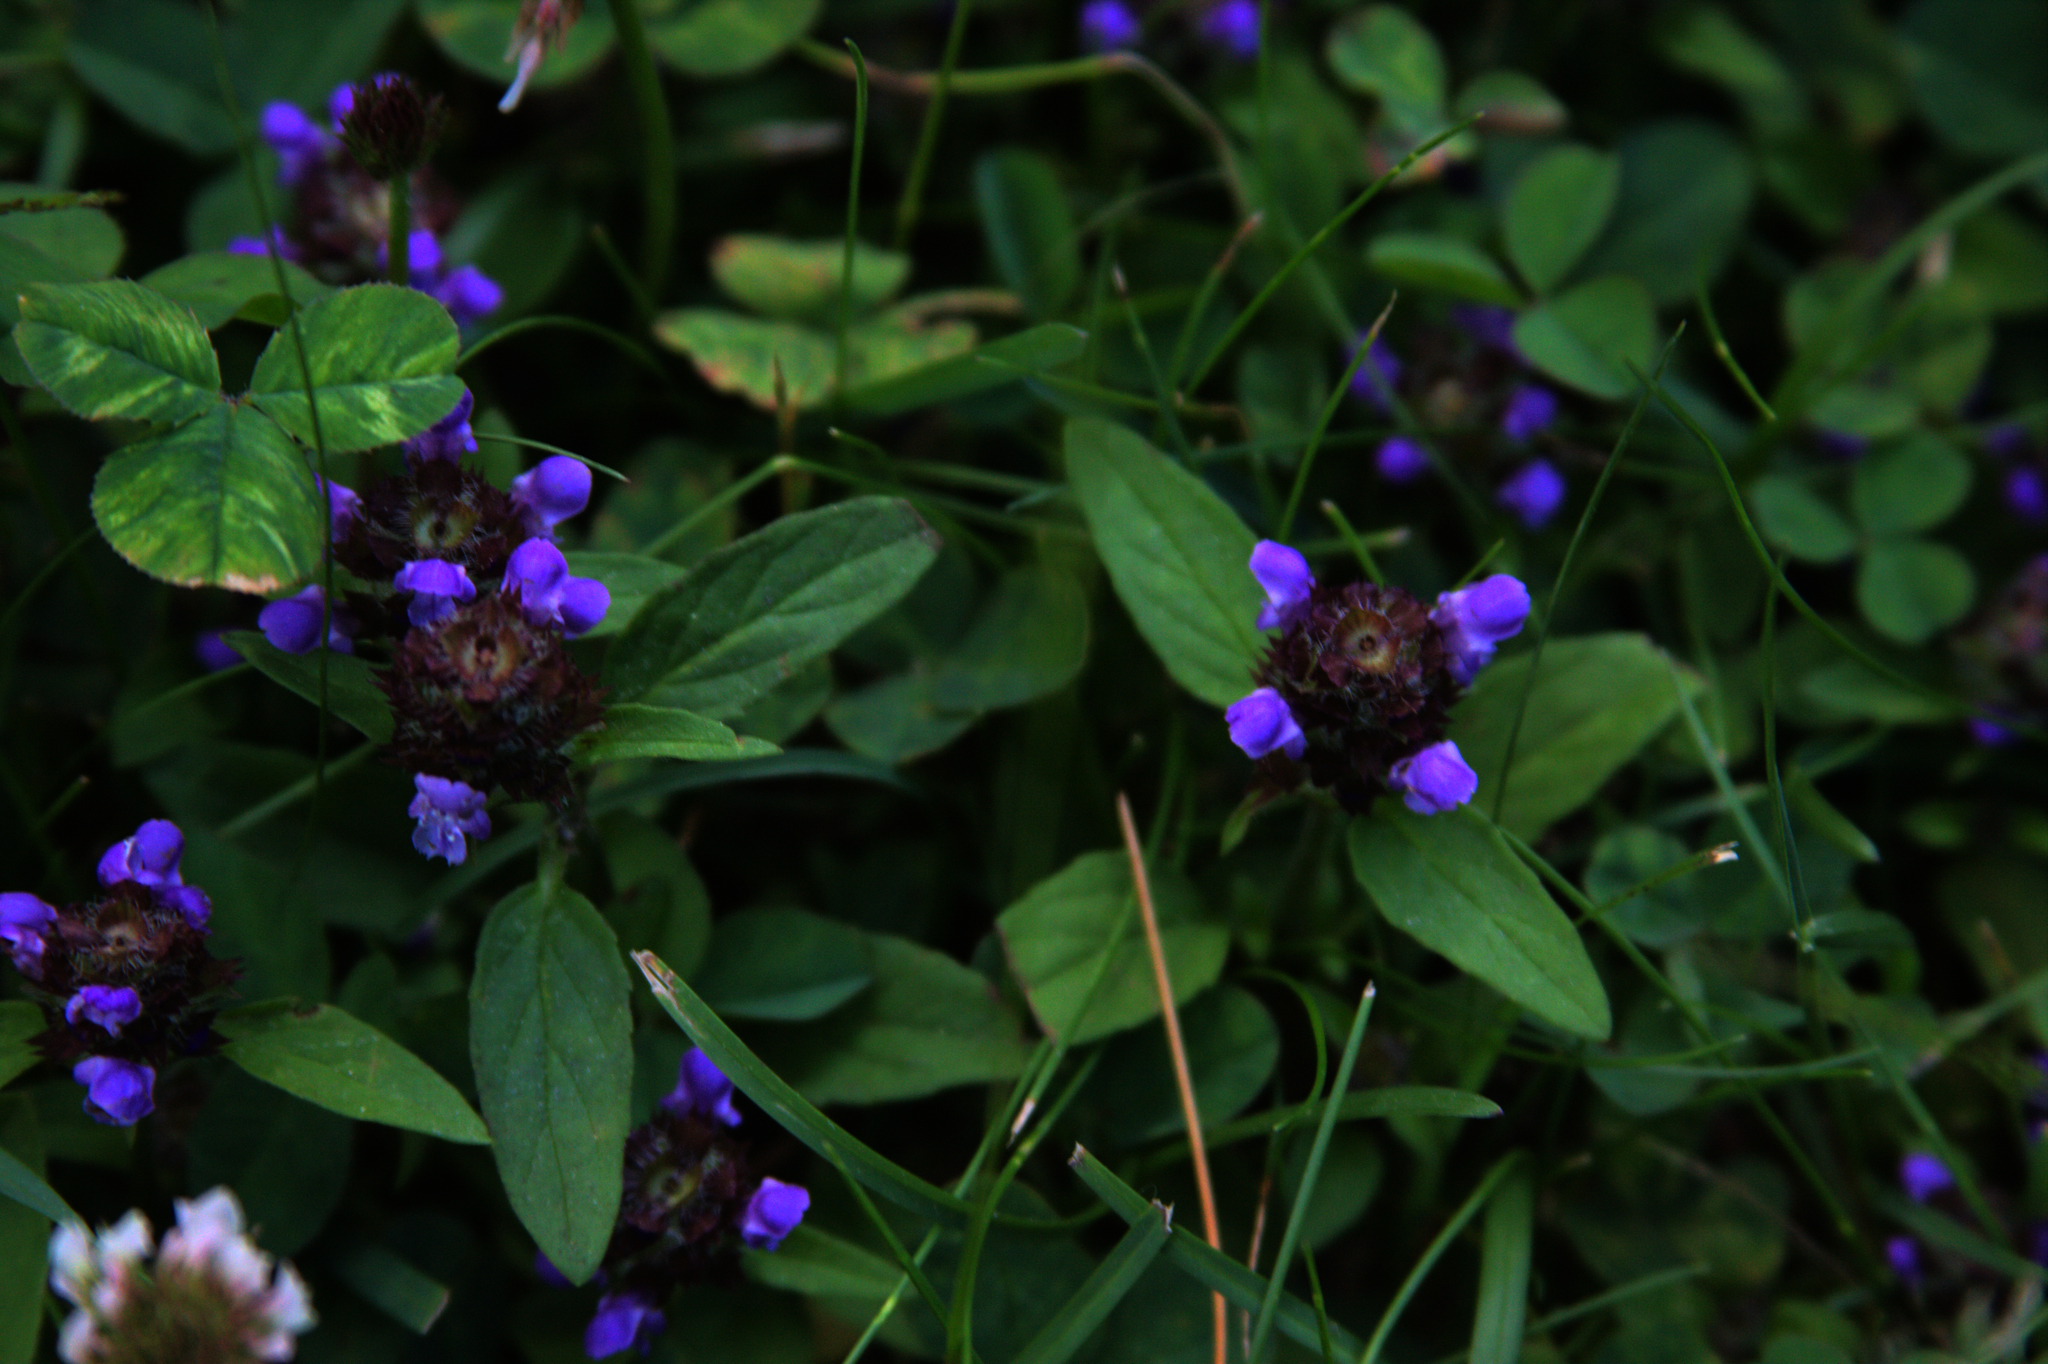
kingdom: Plantae
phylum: Tracheophyta
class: Magnoliopsida
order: Lamiales
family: Lamiaceae
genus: Prunella
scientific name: Prunella vulgaris
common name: Heal-all
